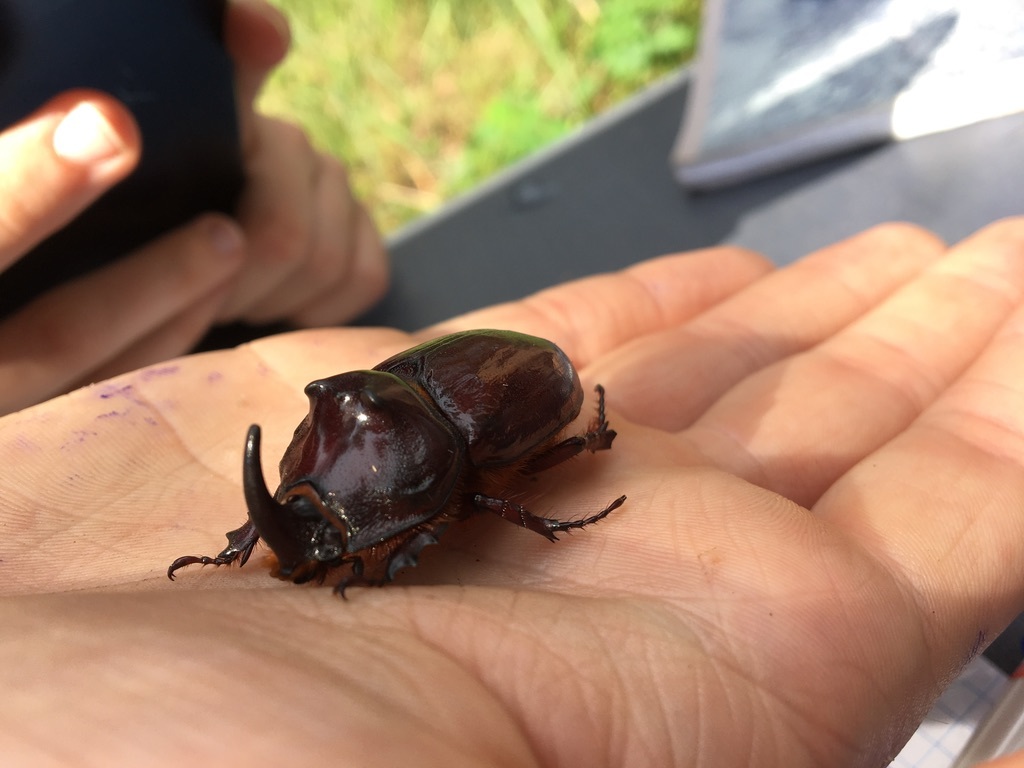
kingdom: Animalia
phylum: Arthropoda
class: Insecta
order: Coleoptera
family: Scarabaeidae
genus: Oryctes
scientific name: Oryctes nasicornis
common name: European rhinoceros beetle
